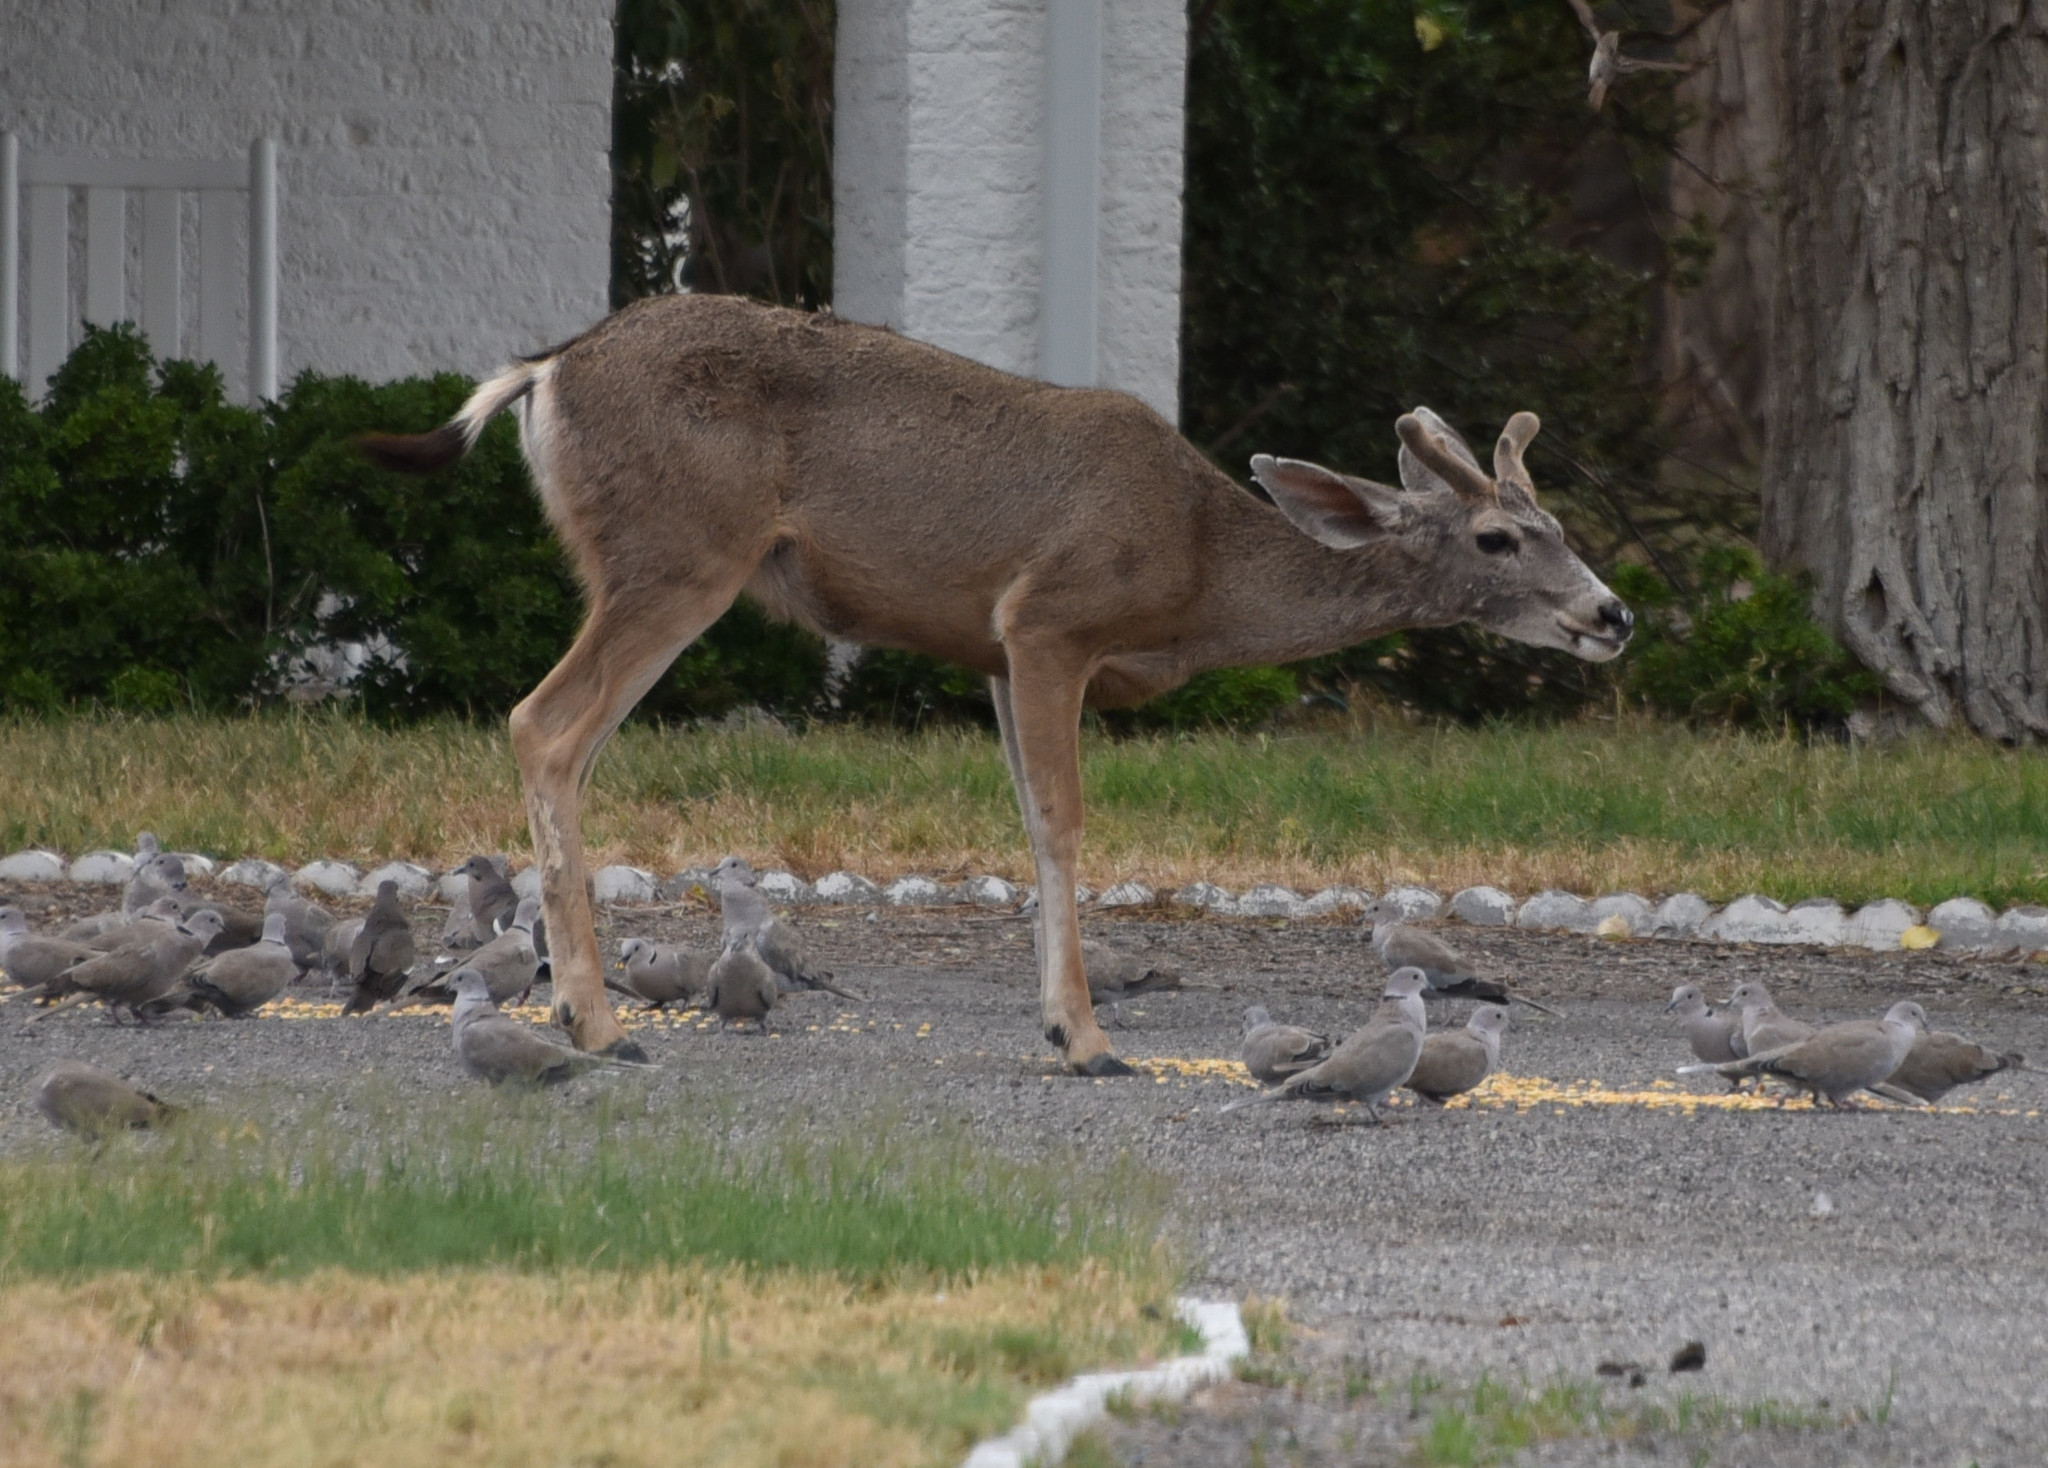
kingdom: Animalia
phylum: Chordata
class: Mammalia
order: Artiodactyla
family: Cervidae
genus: Odocoileus
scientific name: Odocoileus hemionus
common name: Mule deer
